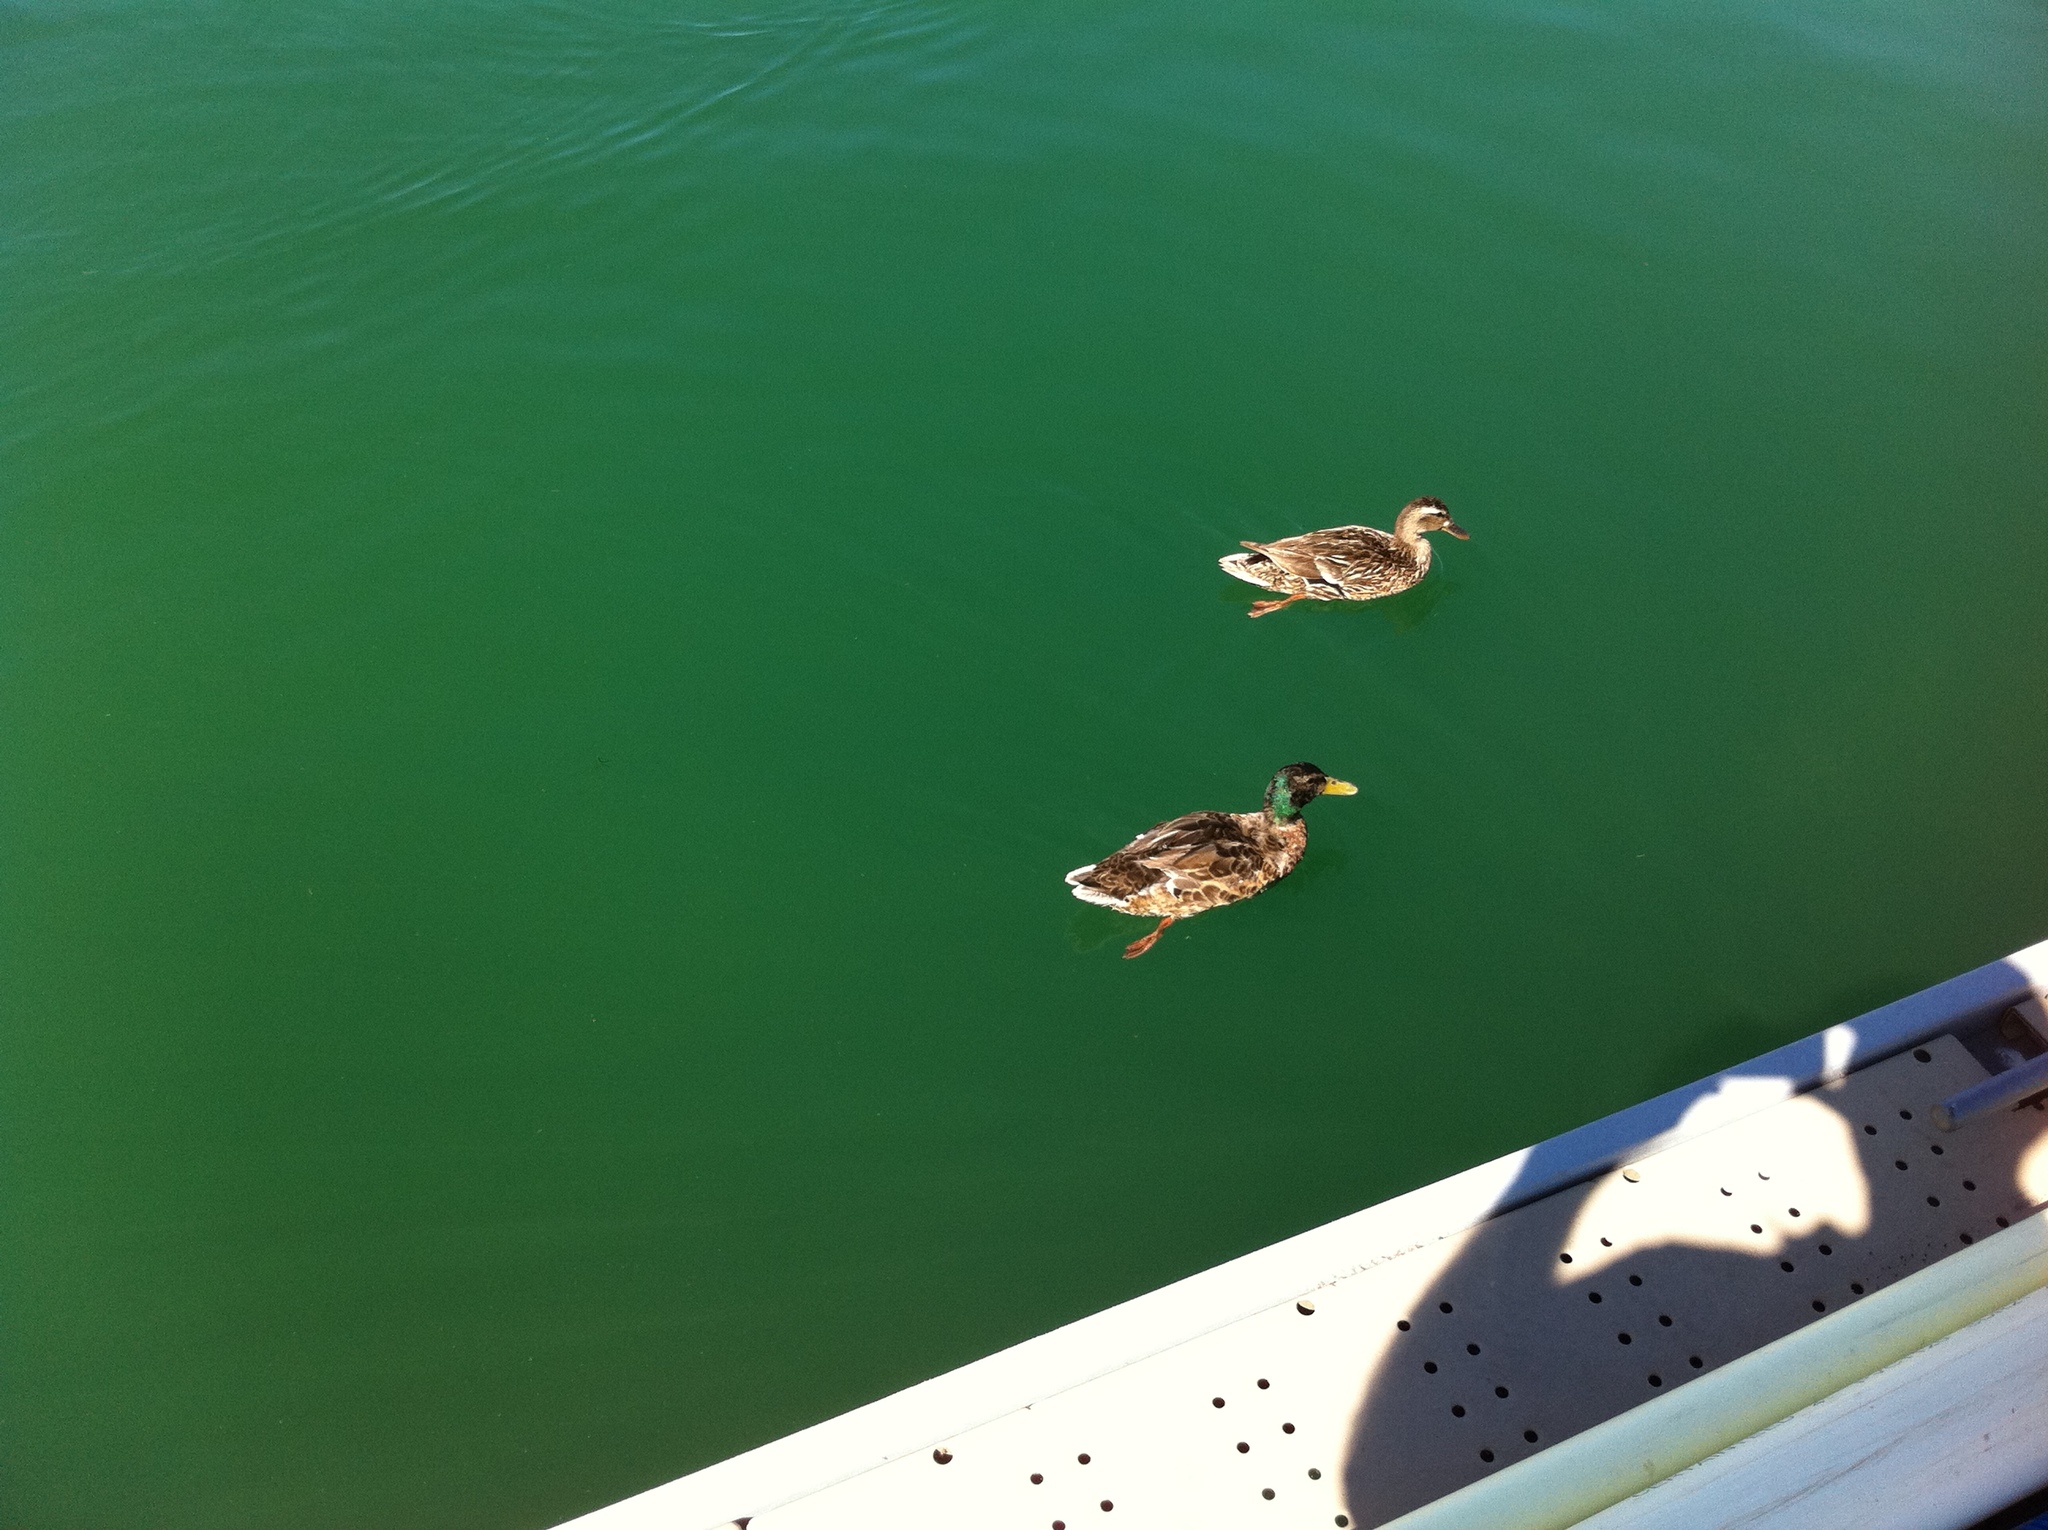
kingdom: Animalia
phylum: Chordata
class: Aves
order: Anseriformes
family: Anatidae
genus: Anas
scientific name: Anas platyrhynchos
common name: Mallard
